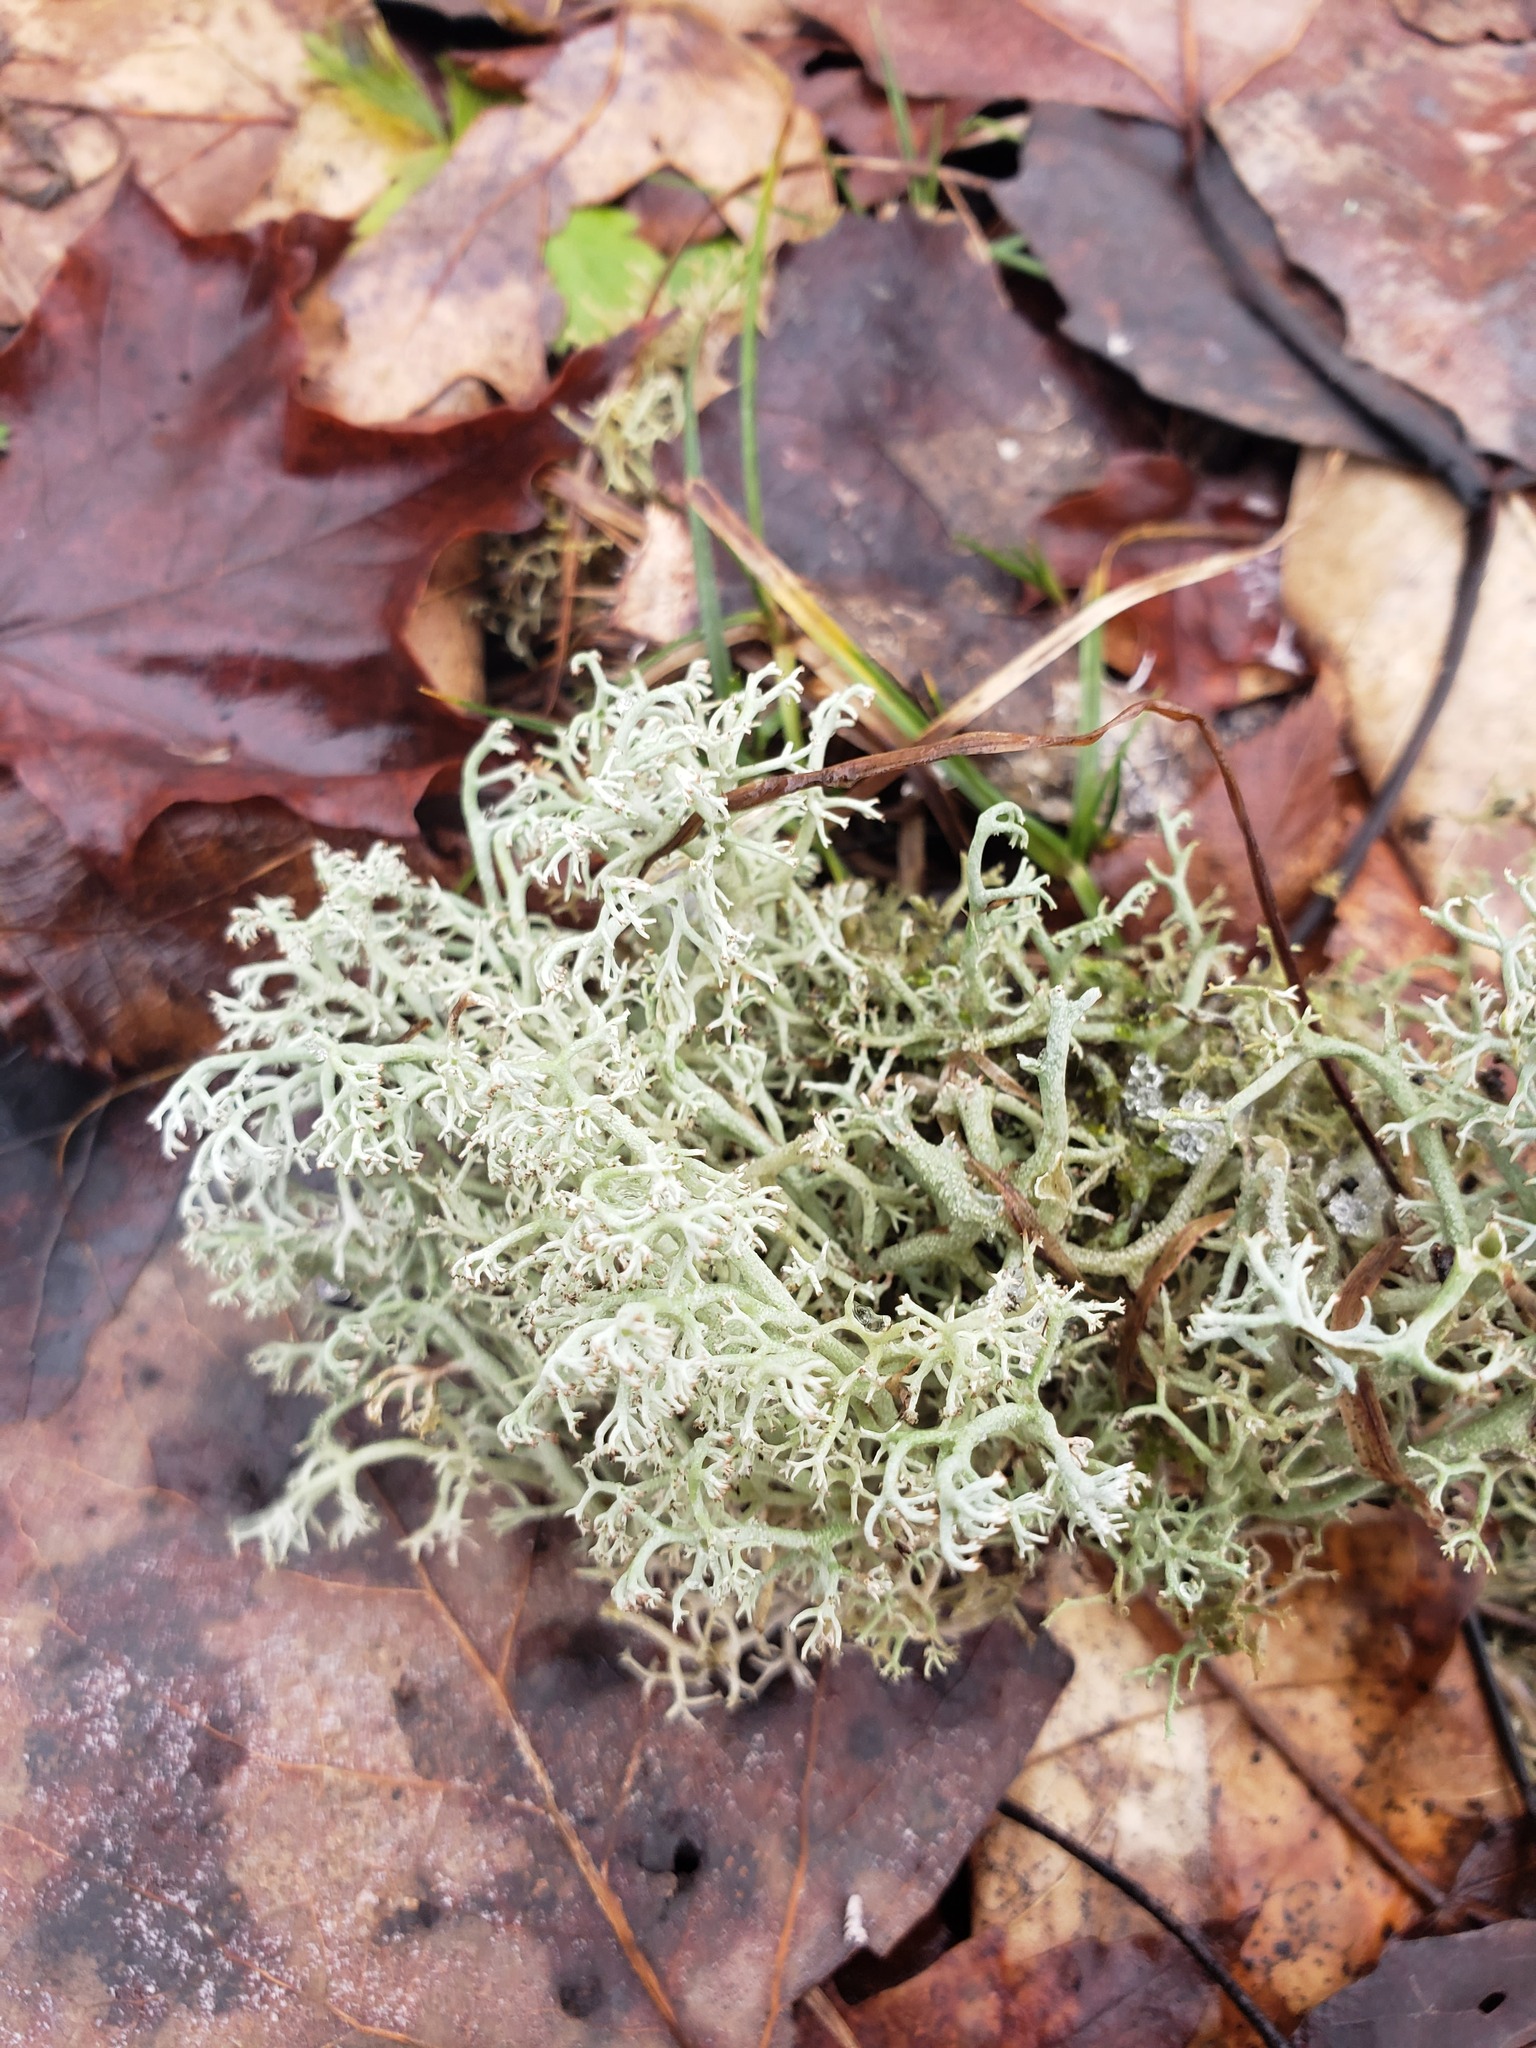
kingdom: Fungi
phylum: Ascomycota
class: Lecanoromycetes
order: Lecanorales
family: Cladoniaceae
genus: Cladonia
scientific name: Cladonia rangiferina
